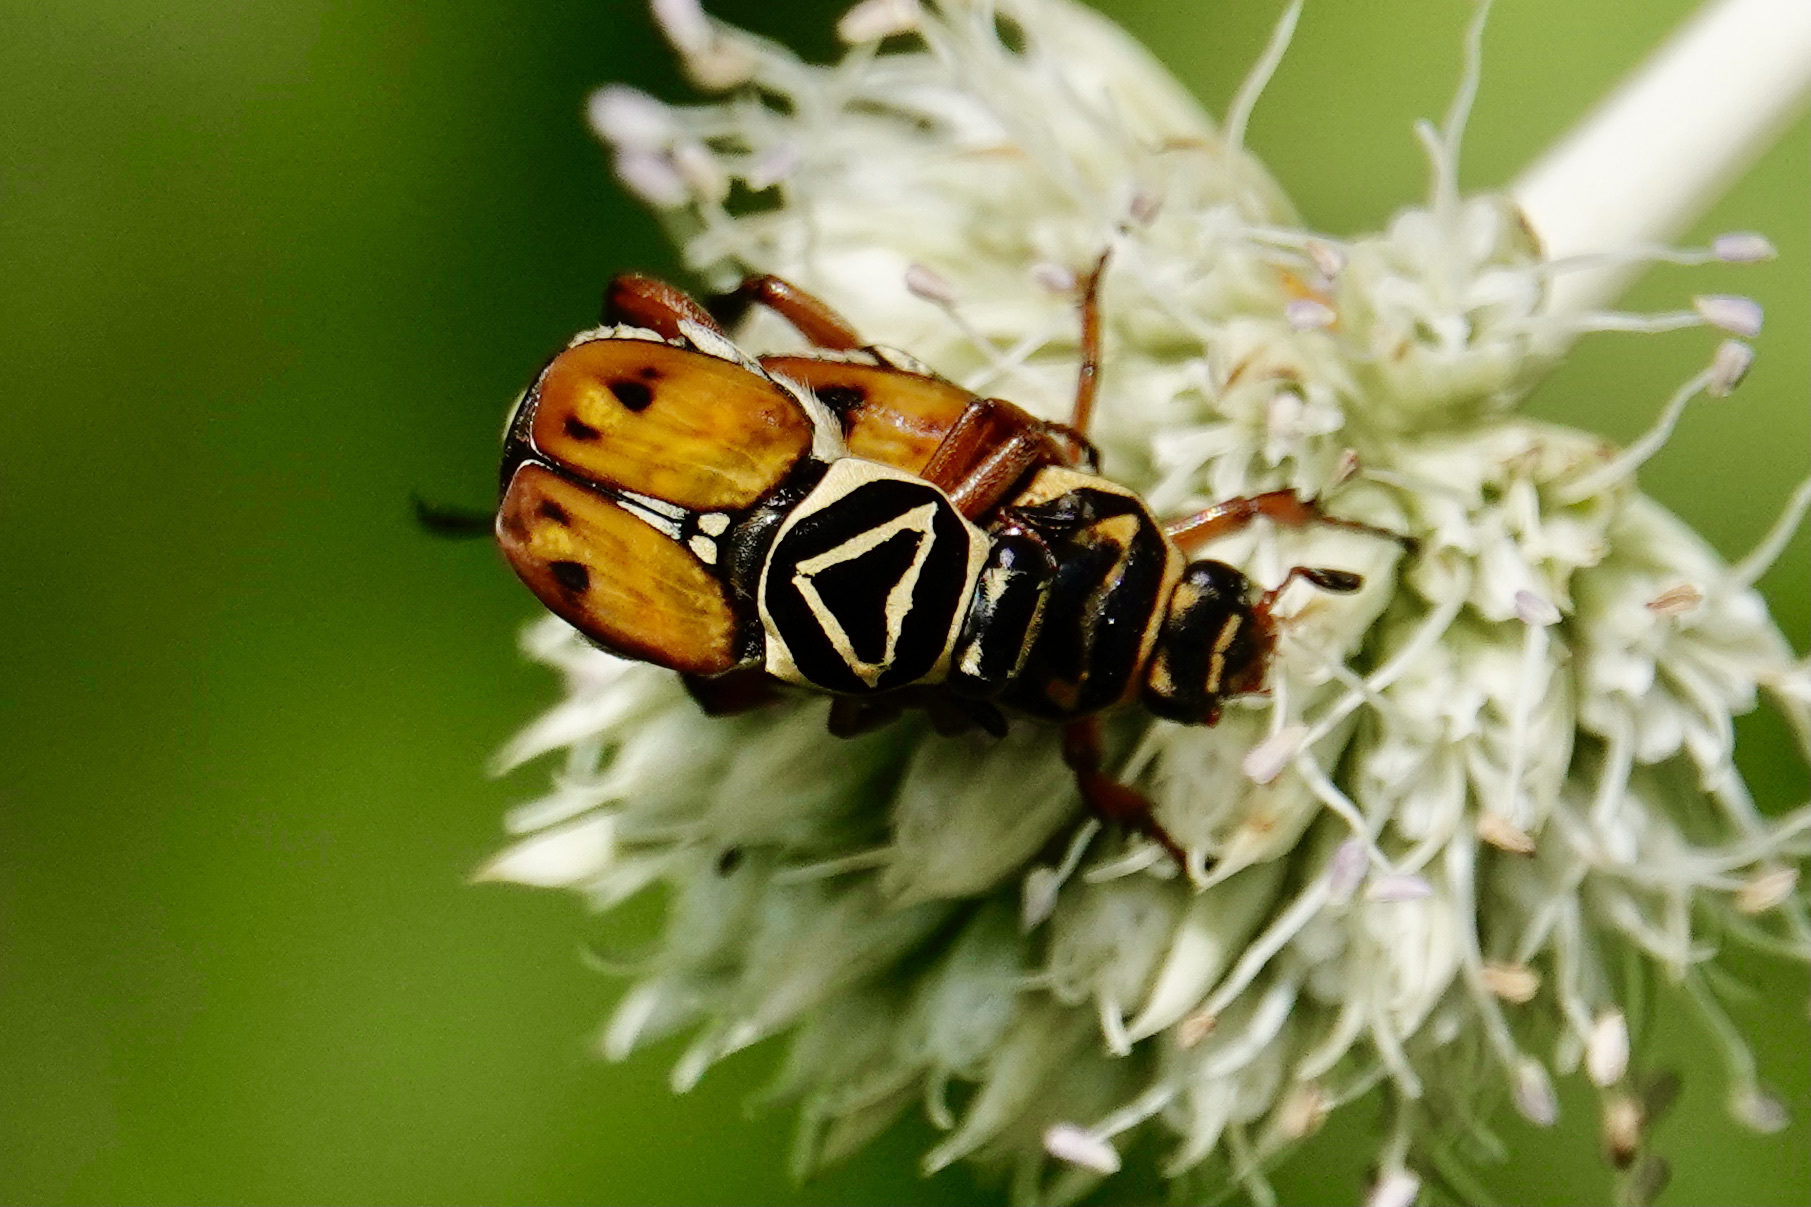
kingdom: Animalia
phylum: Arthropoda
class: Insecta
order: Coleoptera
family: Scarabaeidae
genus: Trigonopeltastes
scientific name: Trigonopeltastes delta
